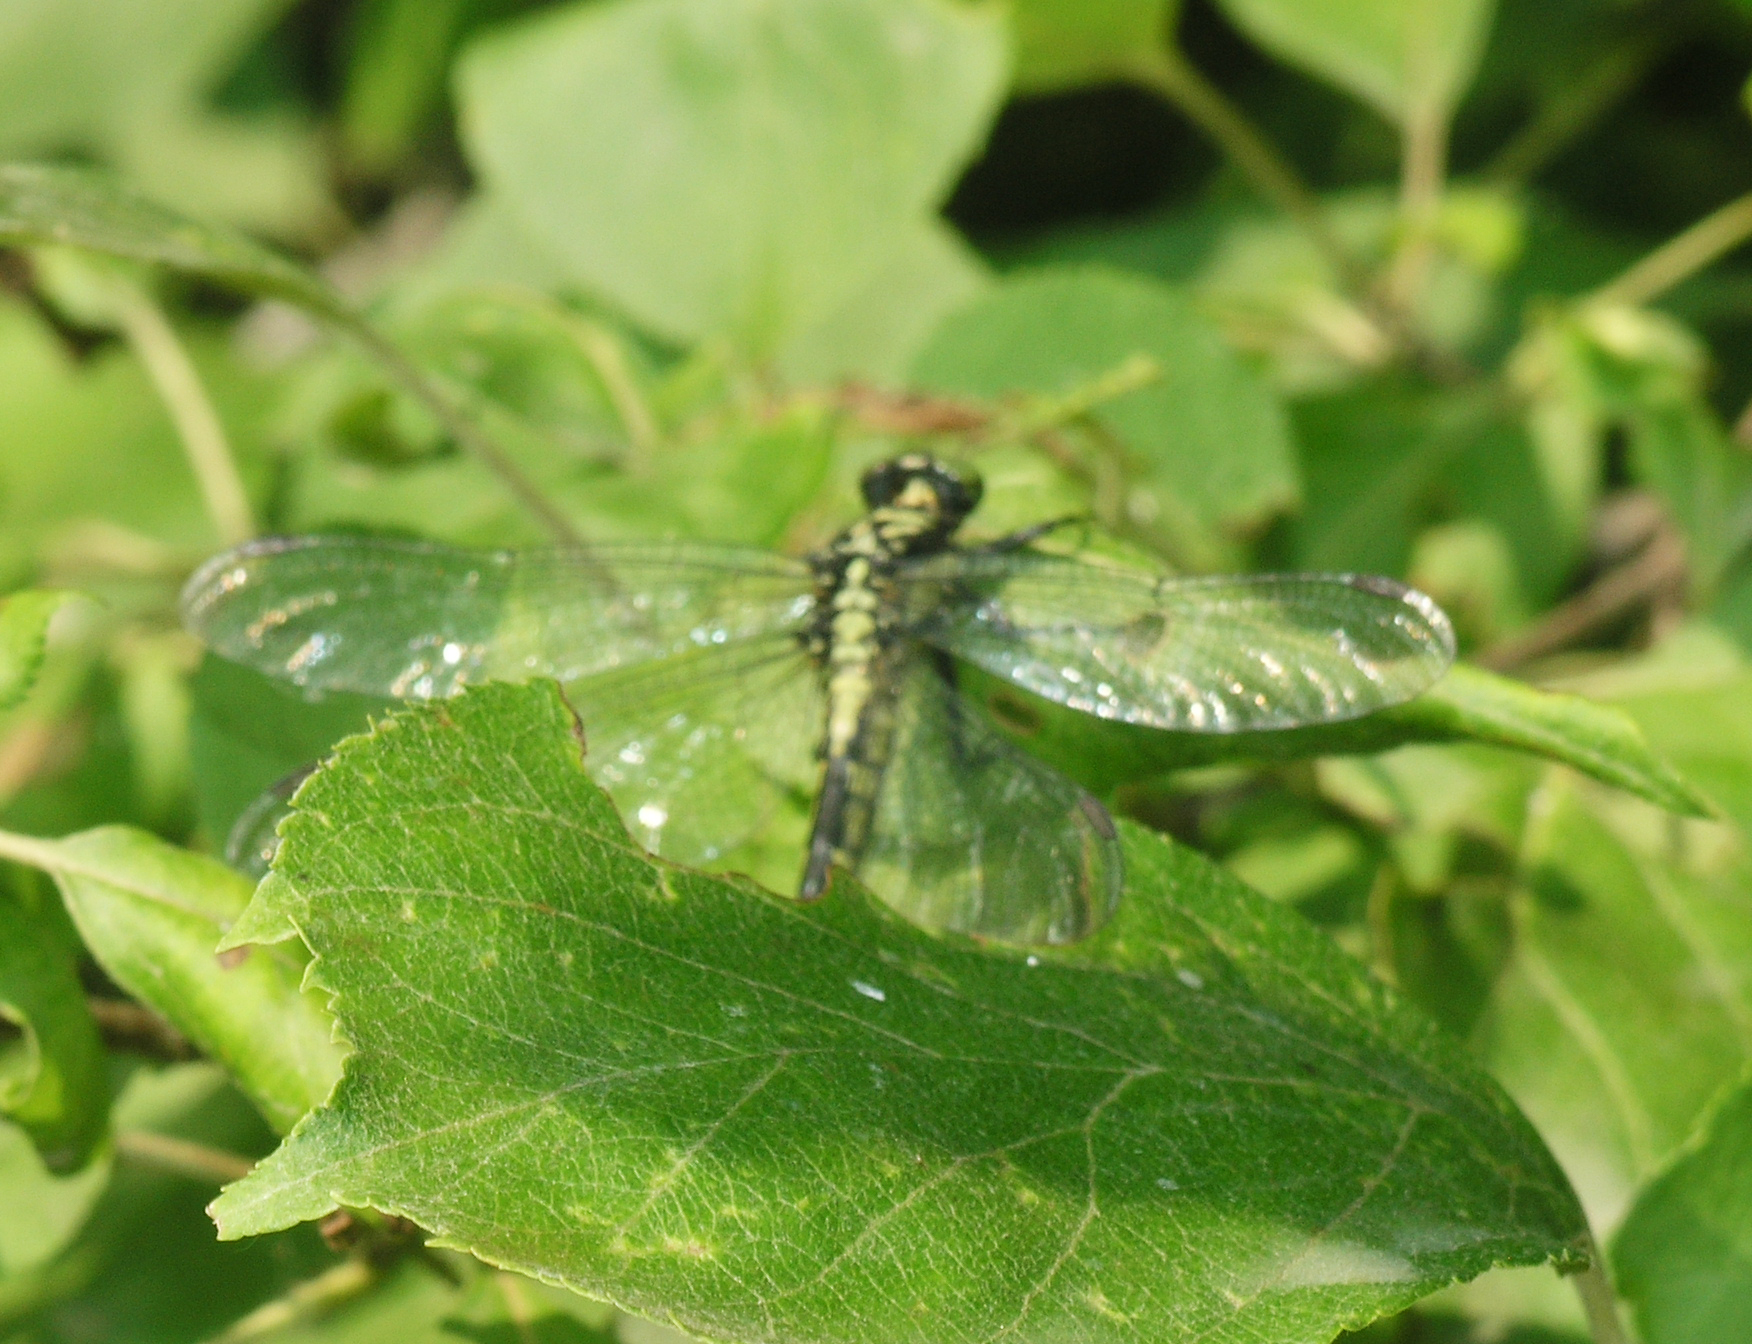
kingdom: Animalia
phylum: Arthropoda
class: Insecta
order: Odonata
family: Gomphidae
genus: Davidius
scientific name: Davidius lunatus
